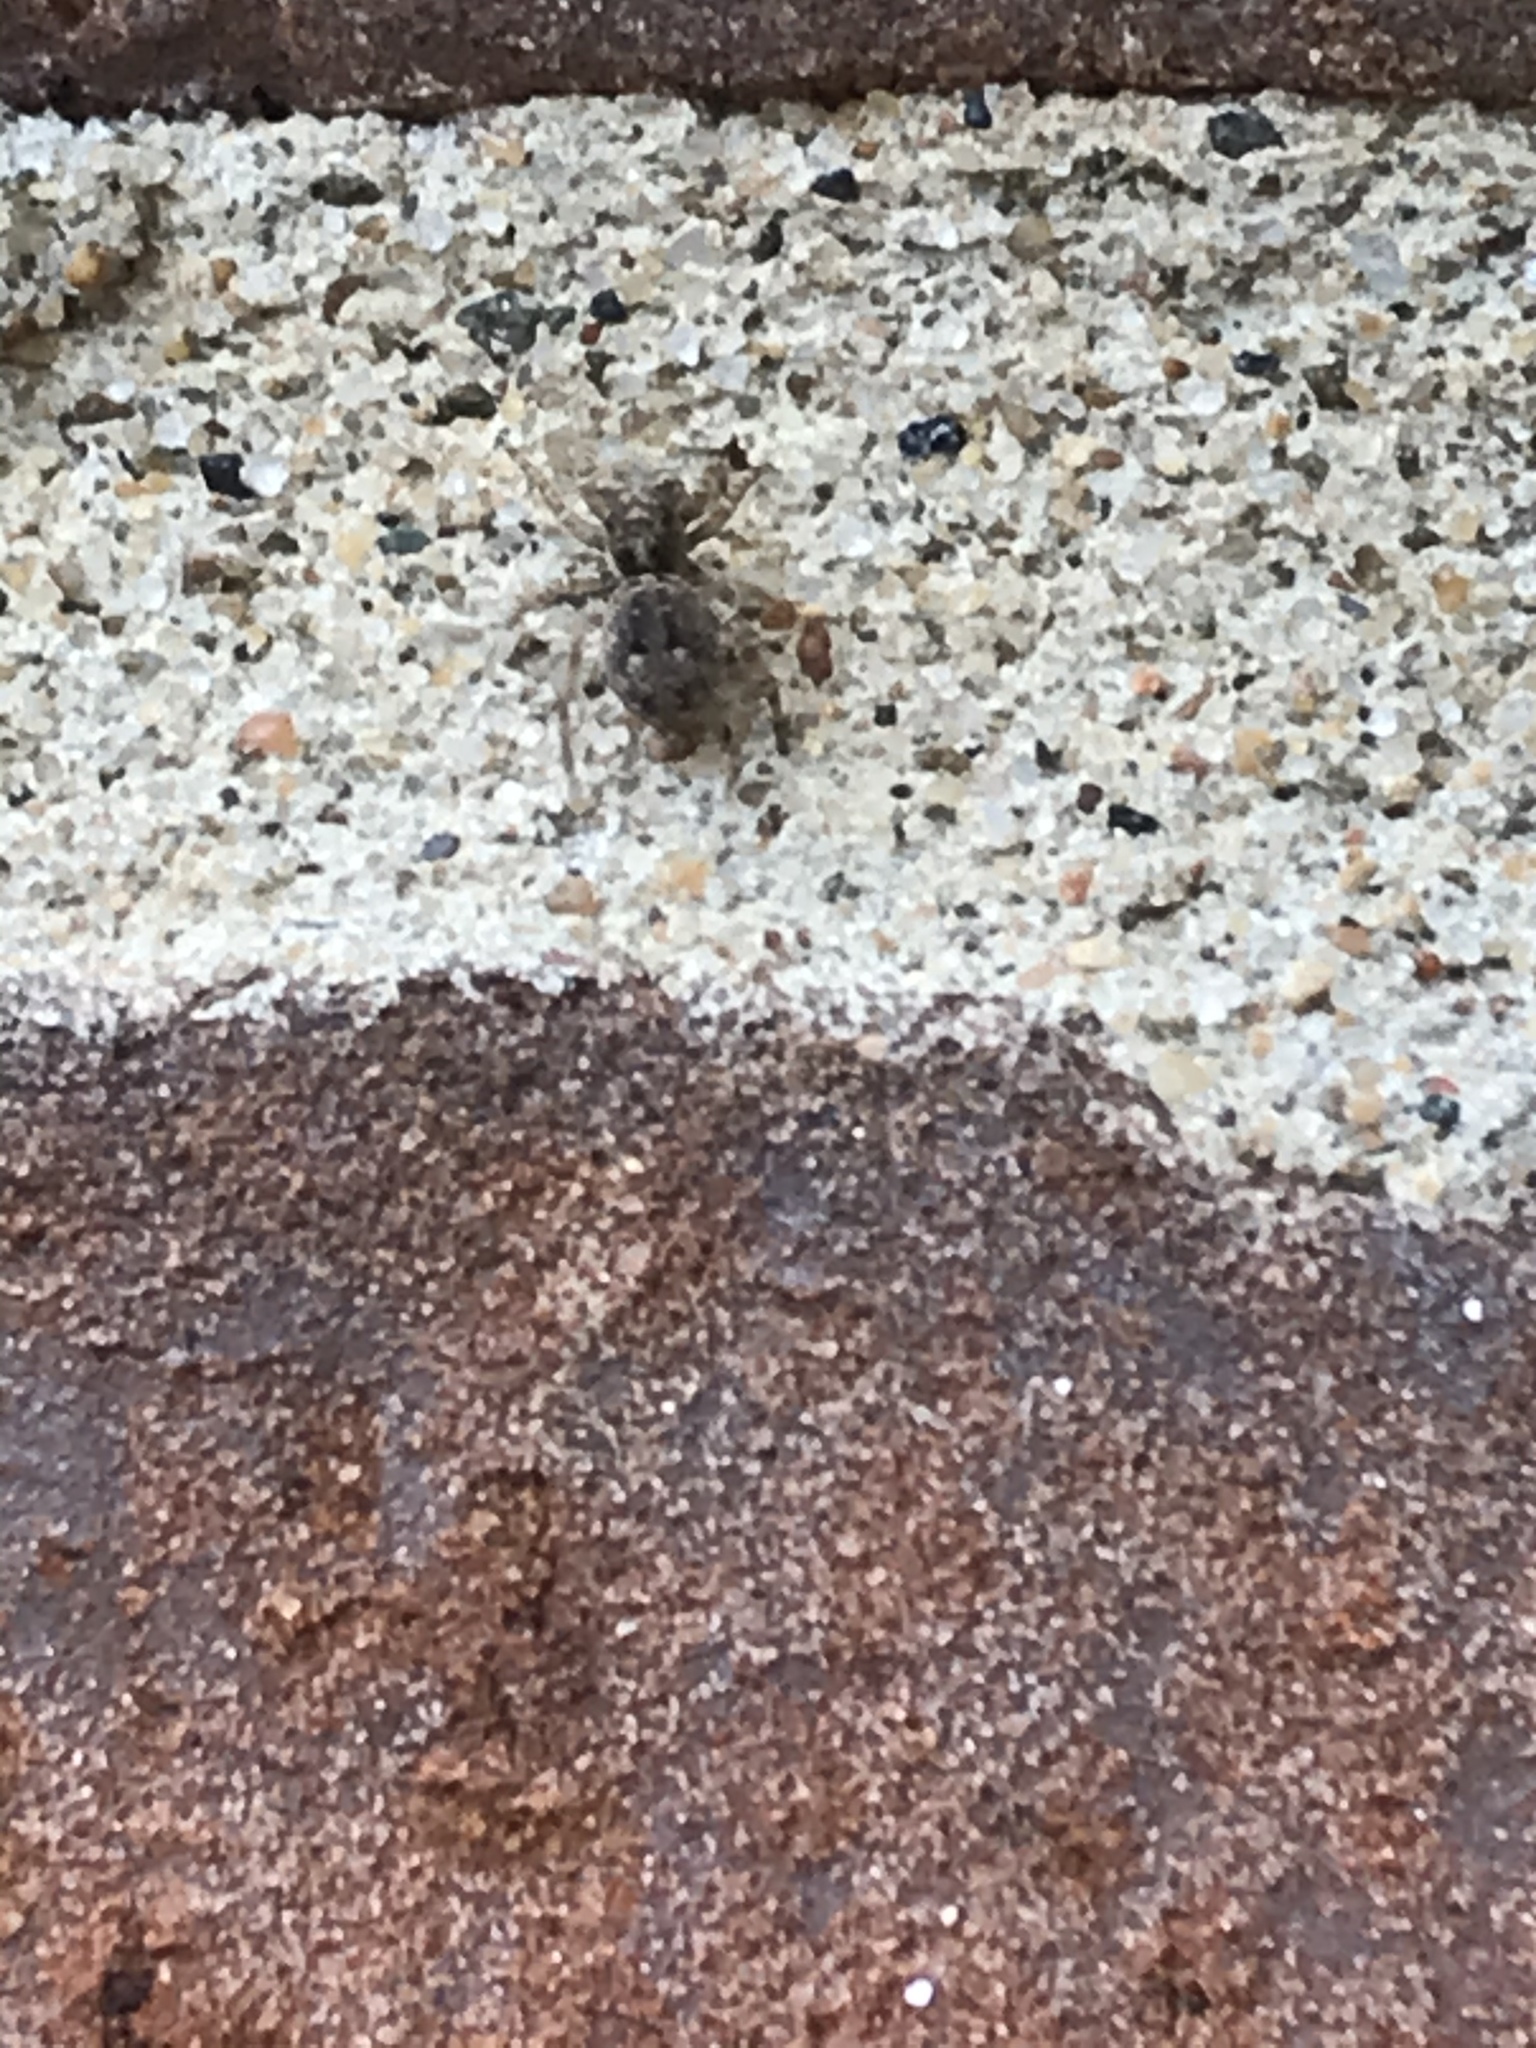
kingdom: Animalia
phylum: Arthropoda
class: Arachnida
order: Araneae
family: Salticidae
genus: Attulus
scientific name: Attulus fasciger
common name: Asiatic wall jumping spider
